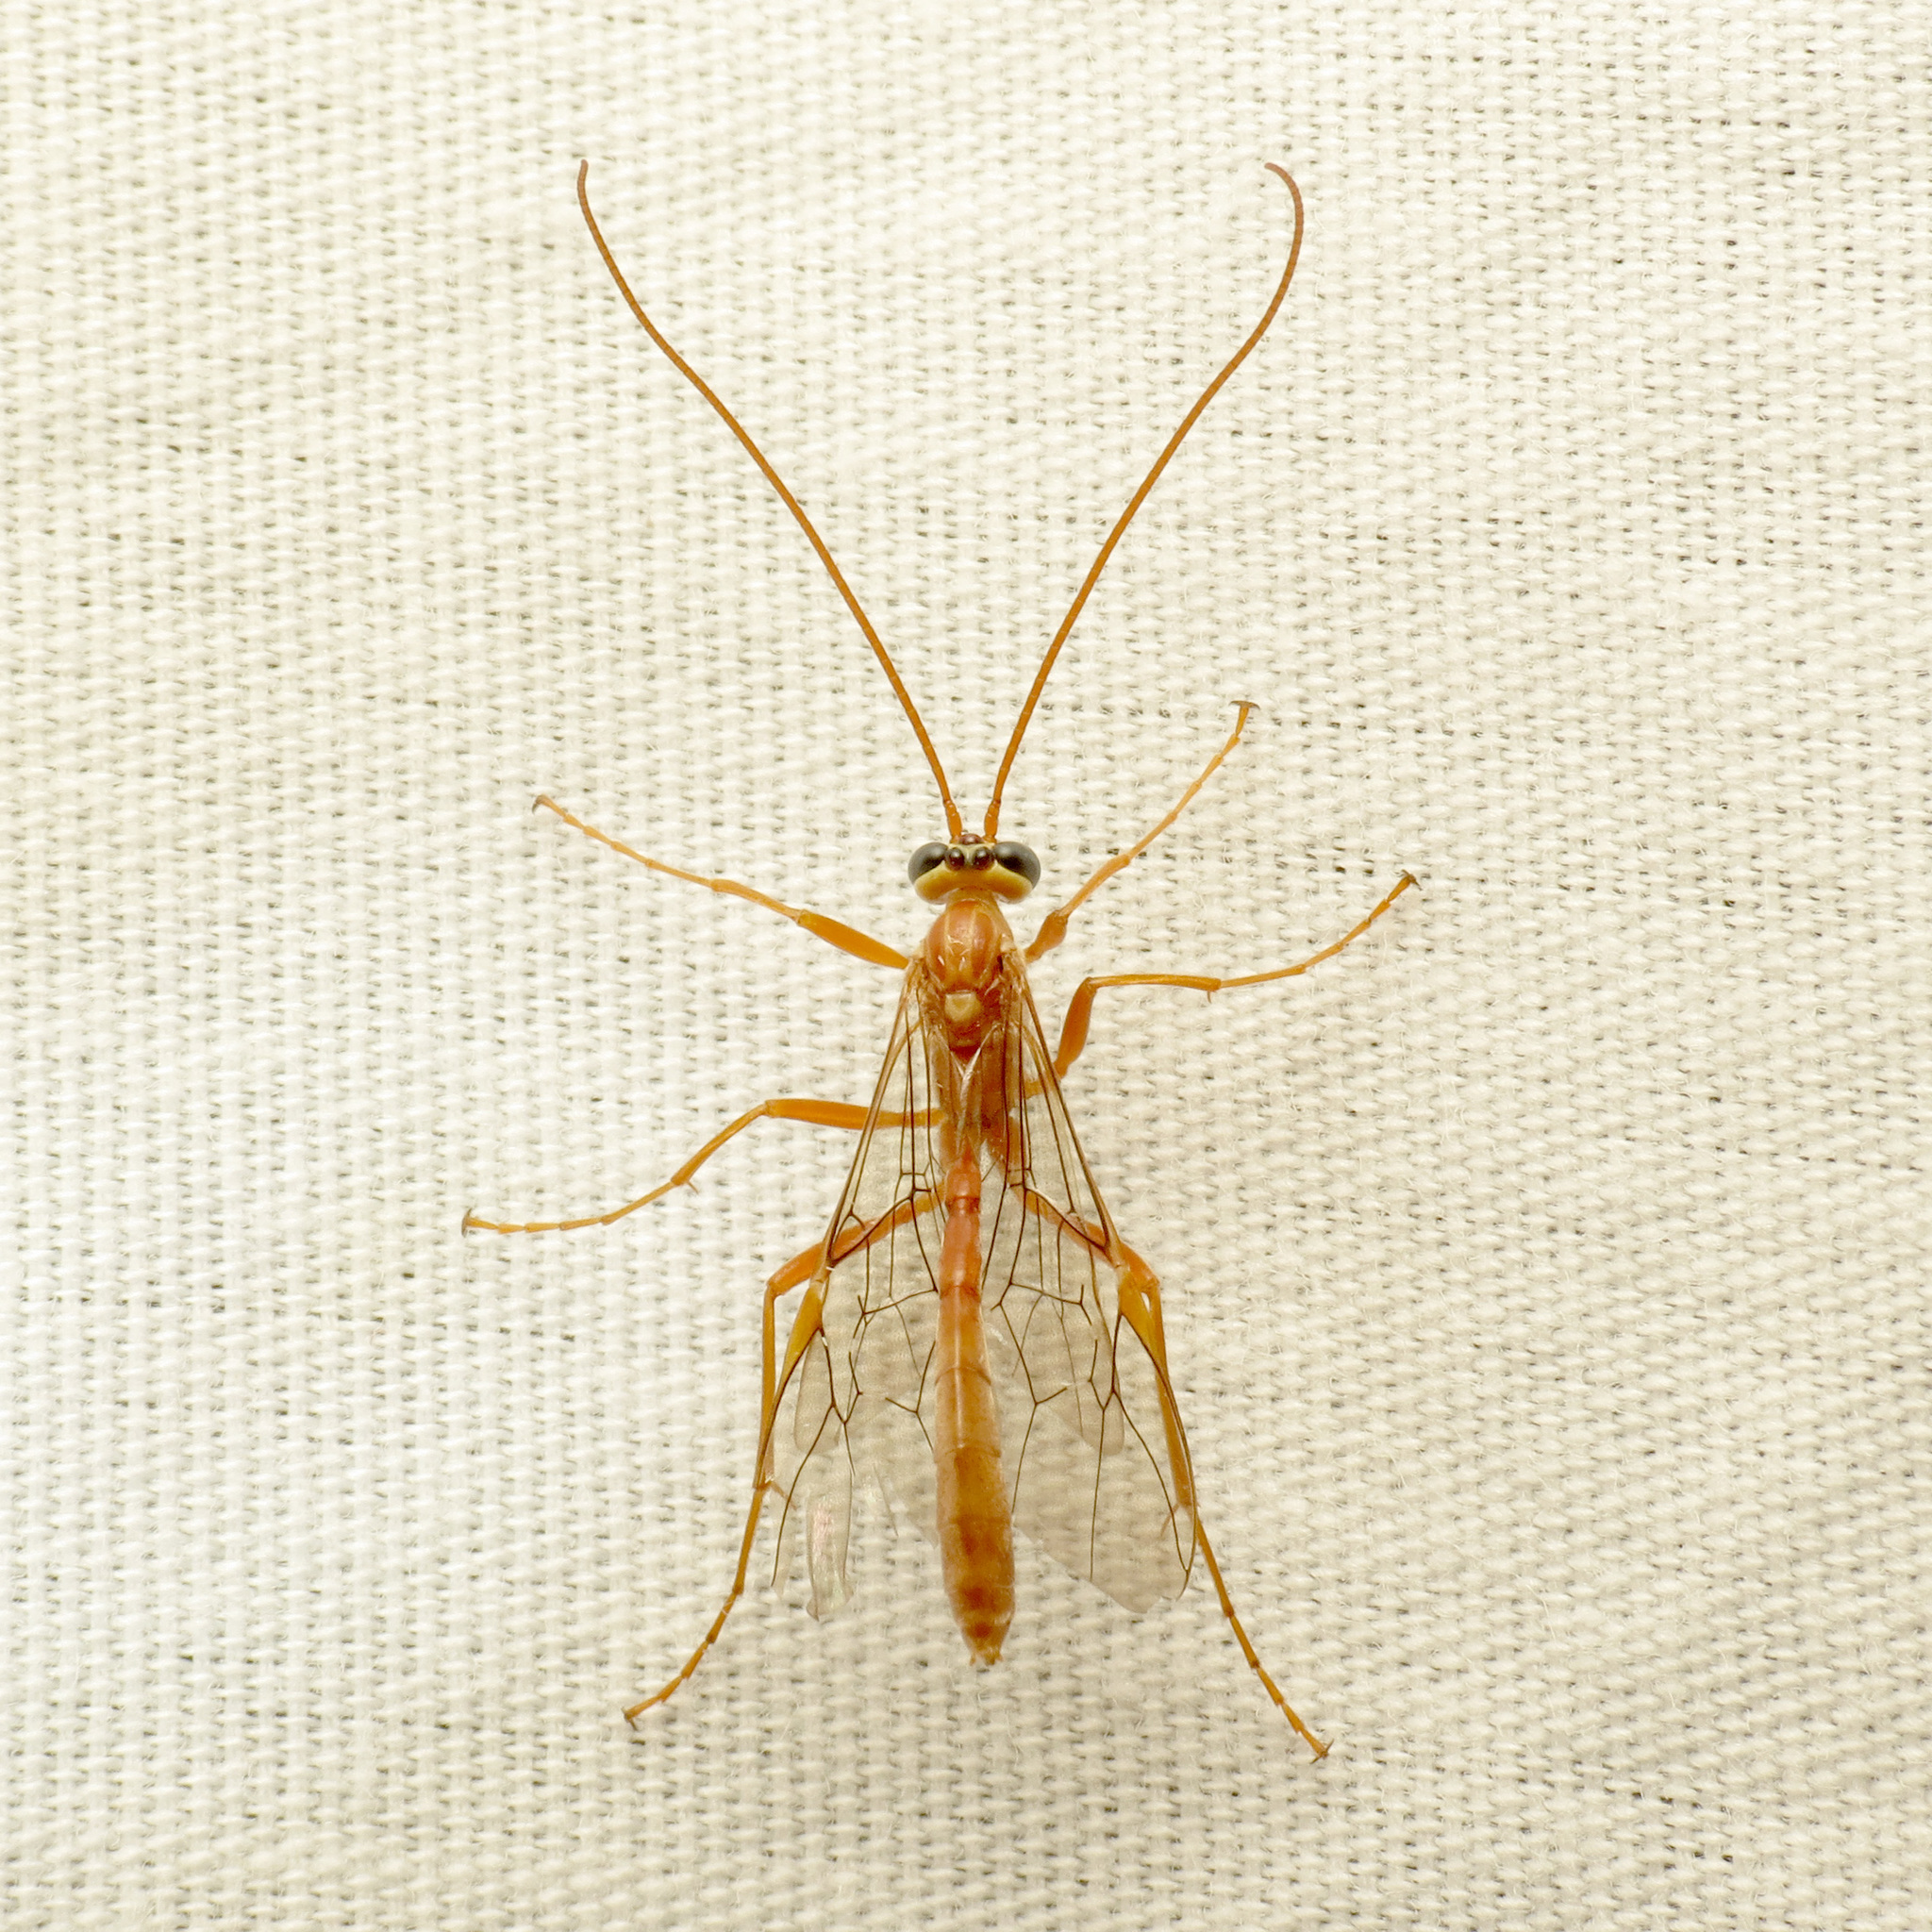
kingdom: Animalia
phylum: Arthropoda
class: Insecta
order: Hymenoptera
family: Ichneumonidae
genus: Ophion
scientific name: Ophion
